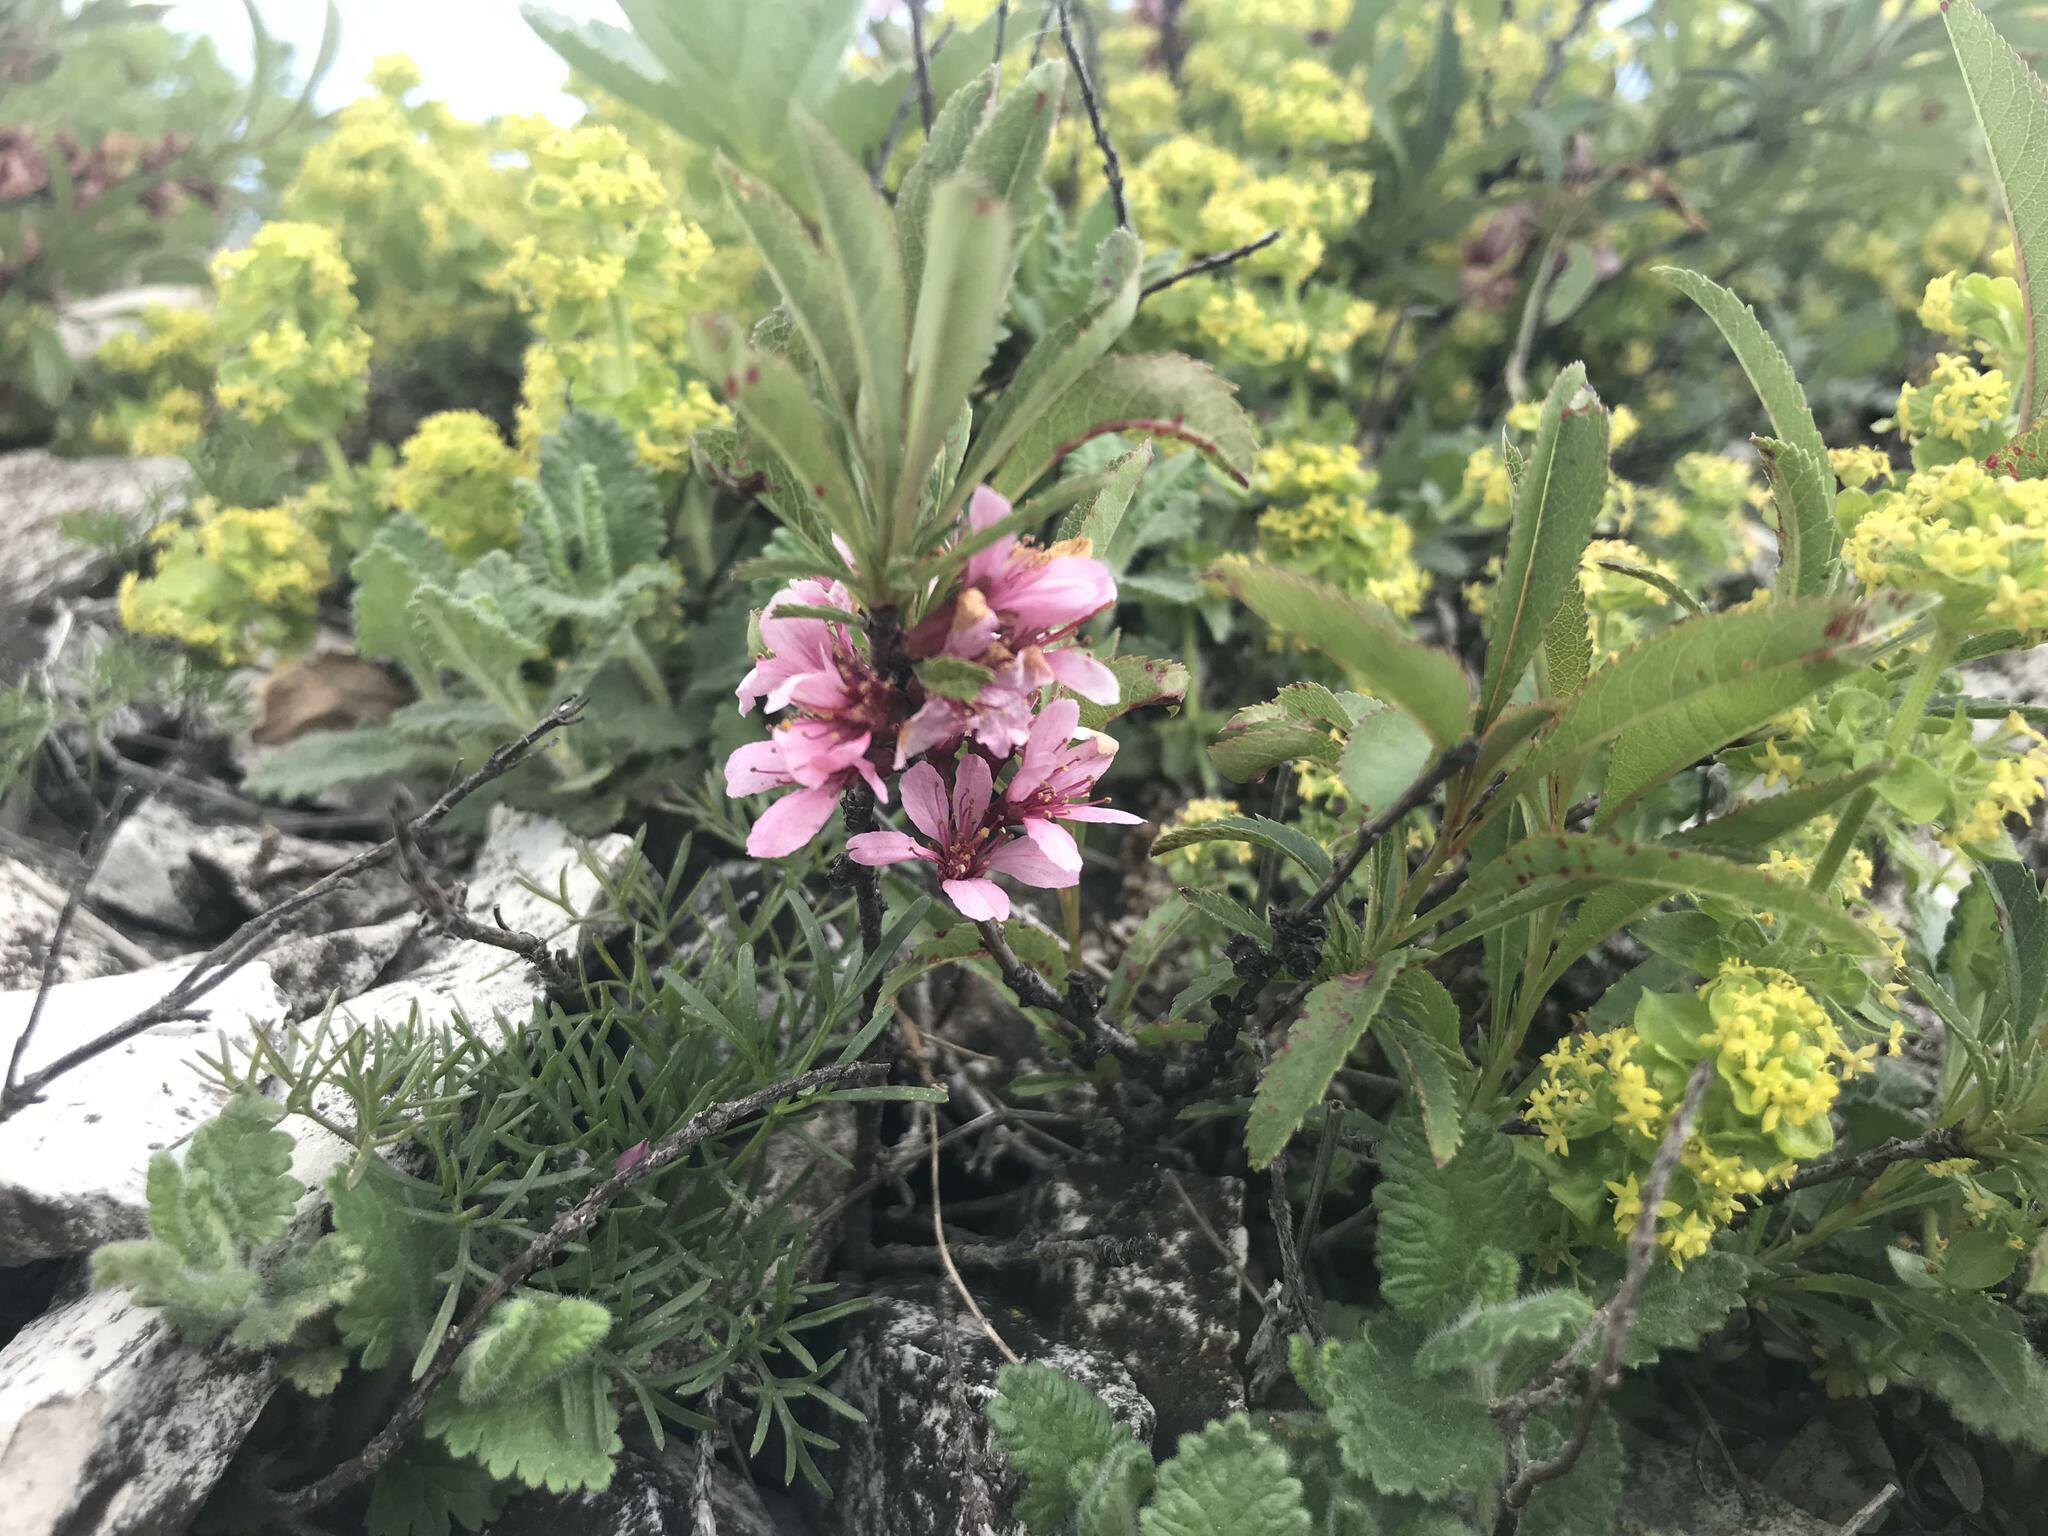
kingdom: Plantae
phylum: Tracheophyta
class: Magnoliopsida
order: Rosales
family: Rosaceae
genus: Prunus
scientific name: Prunus tenella
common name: Dwarf russian almond
